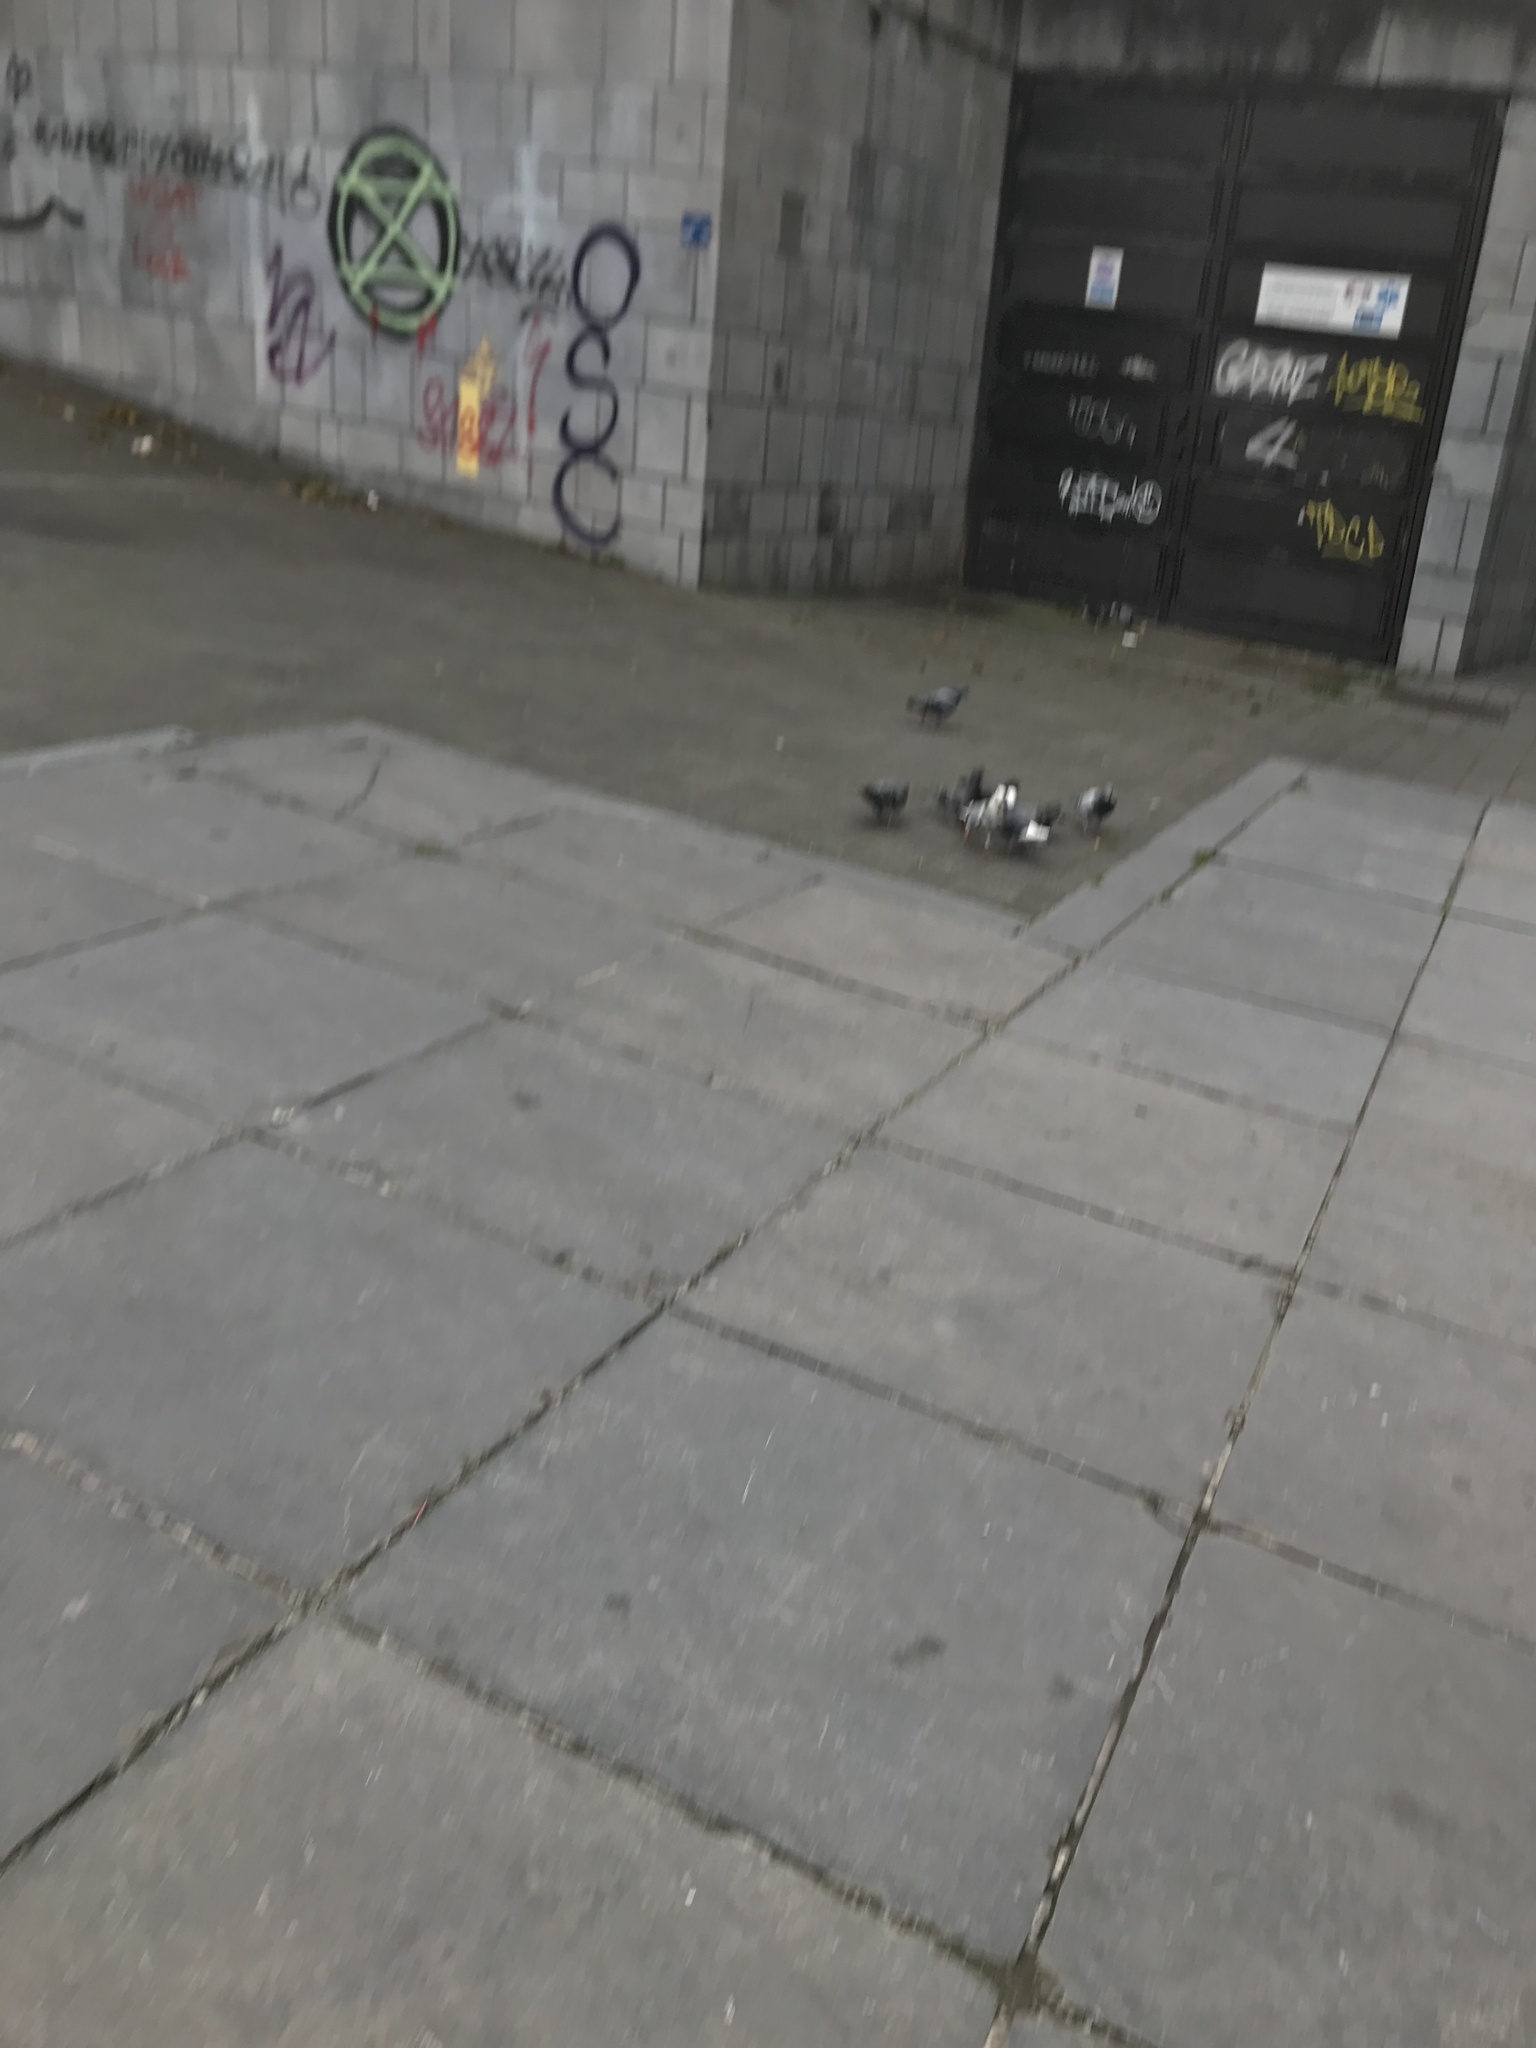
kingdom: Animalia
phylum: Chordata
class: Aves
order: Columbiformes
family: Columbidae
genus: Columba
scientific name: Columba livia
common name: Rock pigeon
